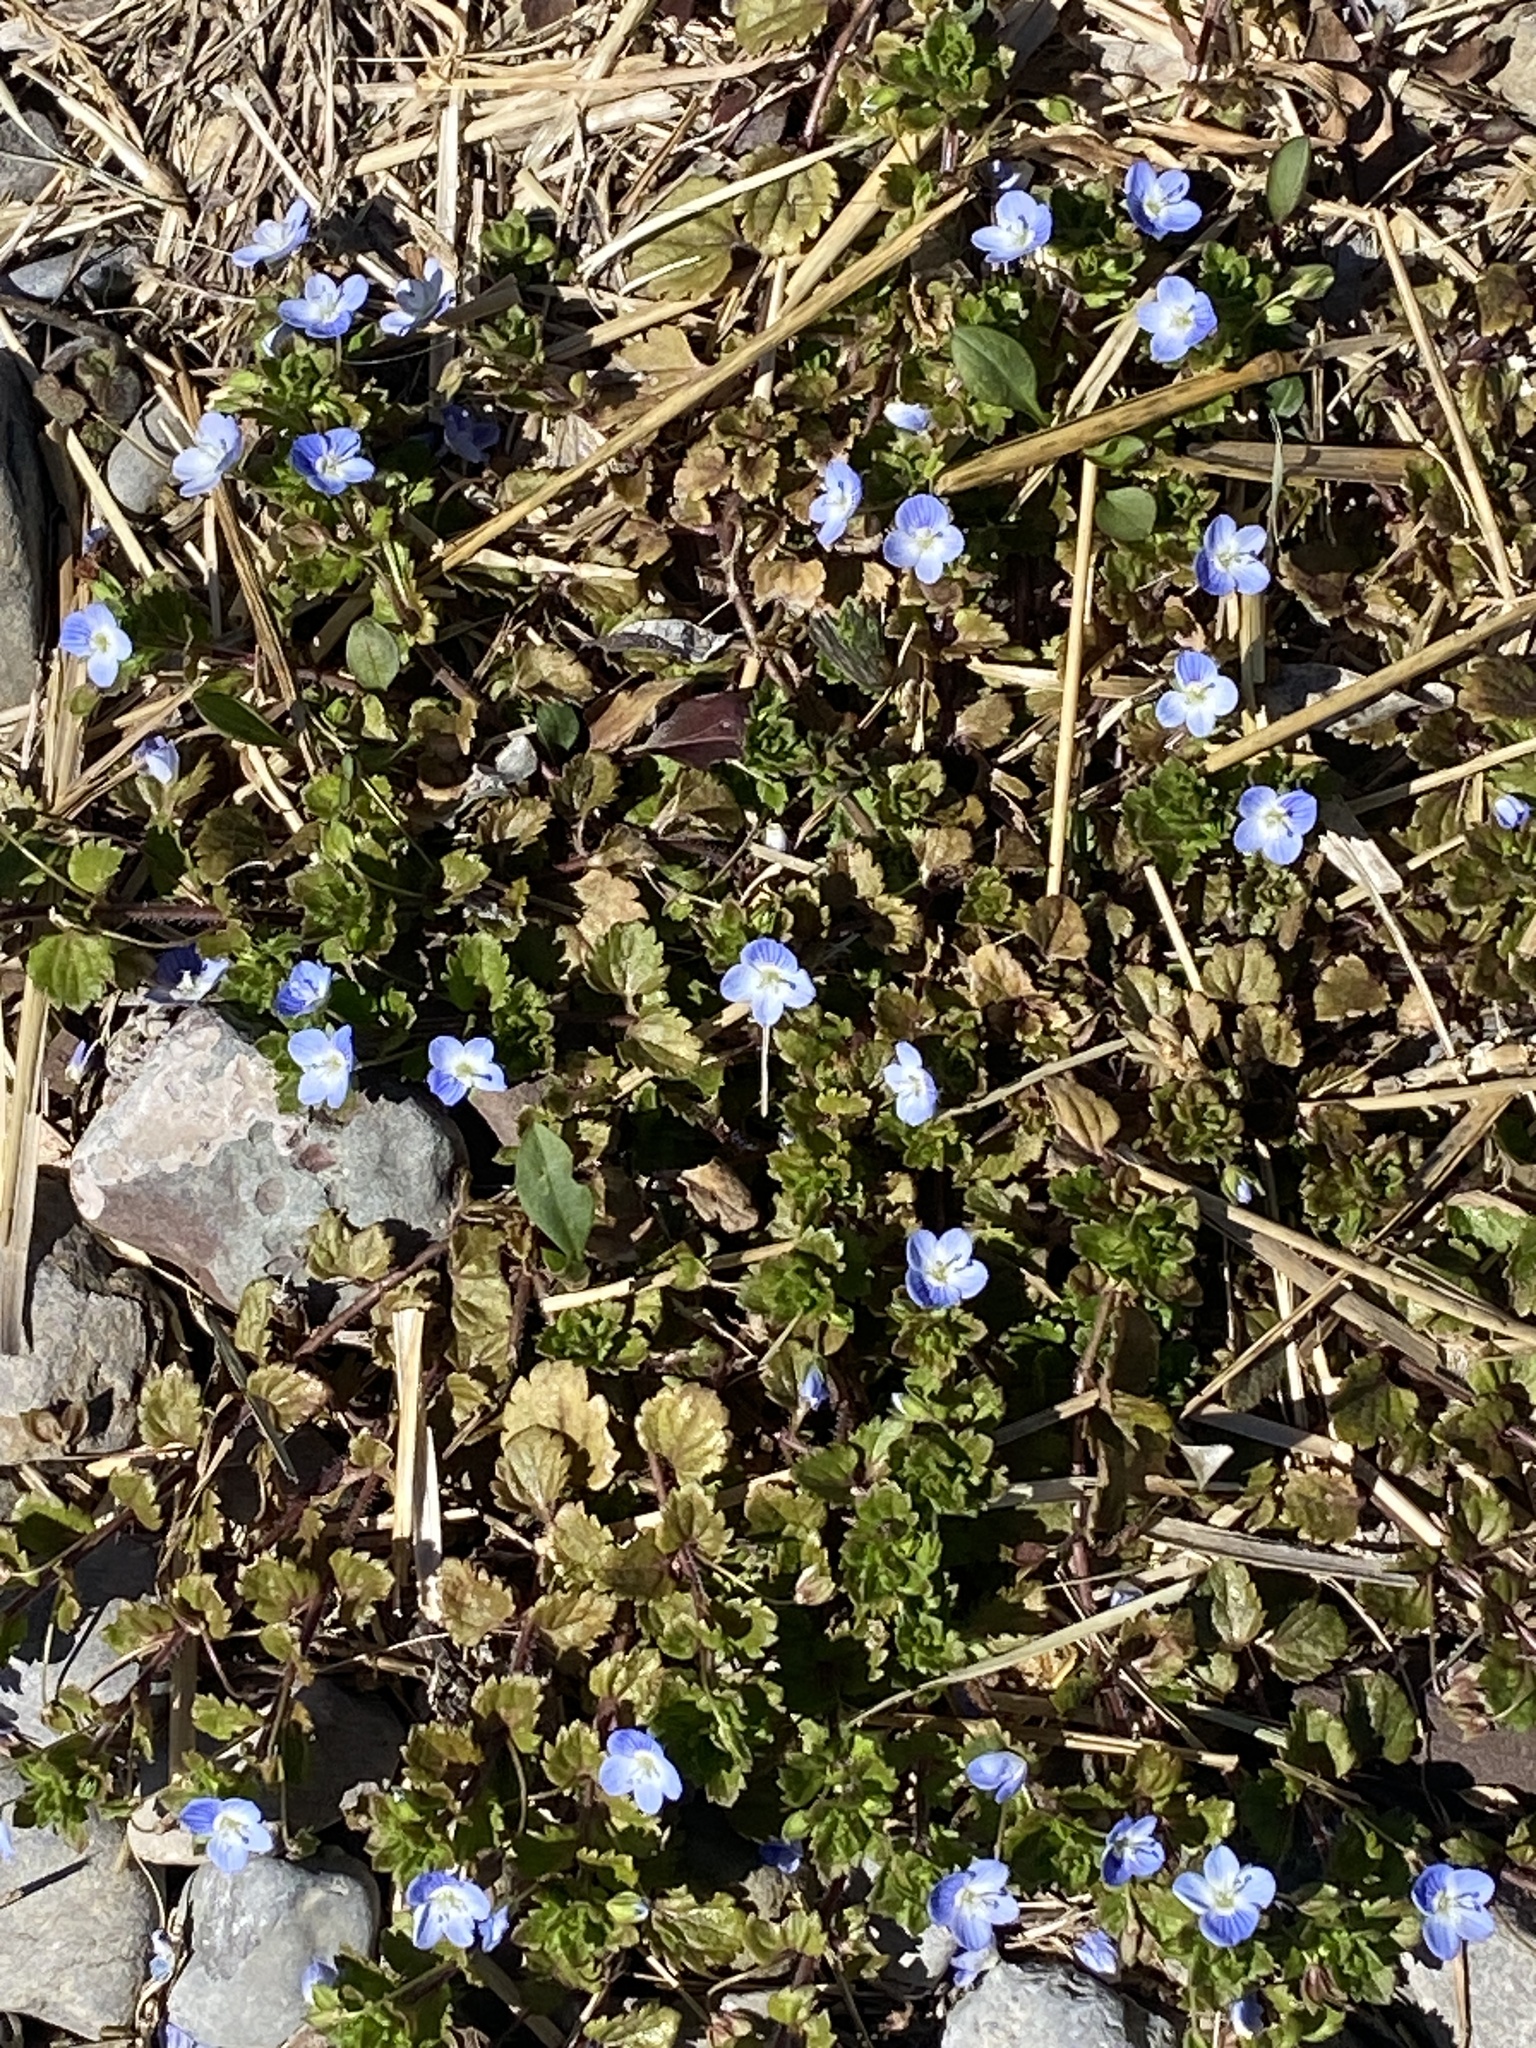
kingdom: Plantae
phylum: Tracheophyta
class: Magnoliopsida
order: Lamiales
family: Plantaginaceae
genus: Veronica
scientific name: Veronica persica
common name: Common field-speedwell
